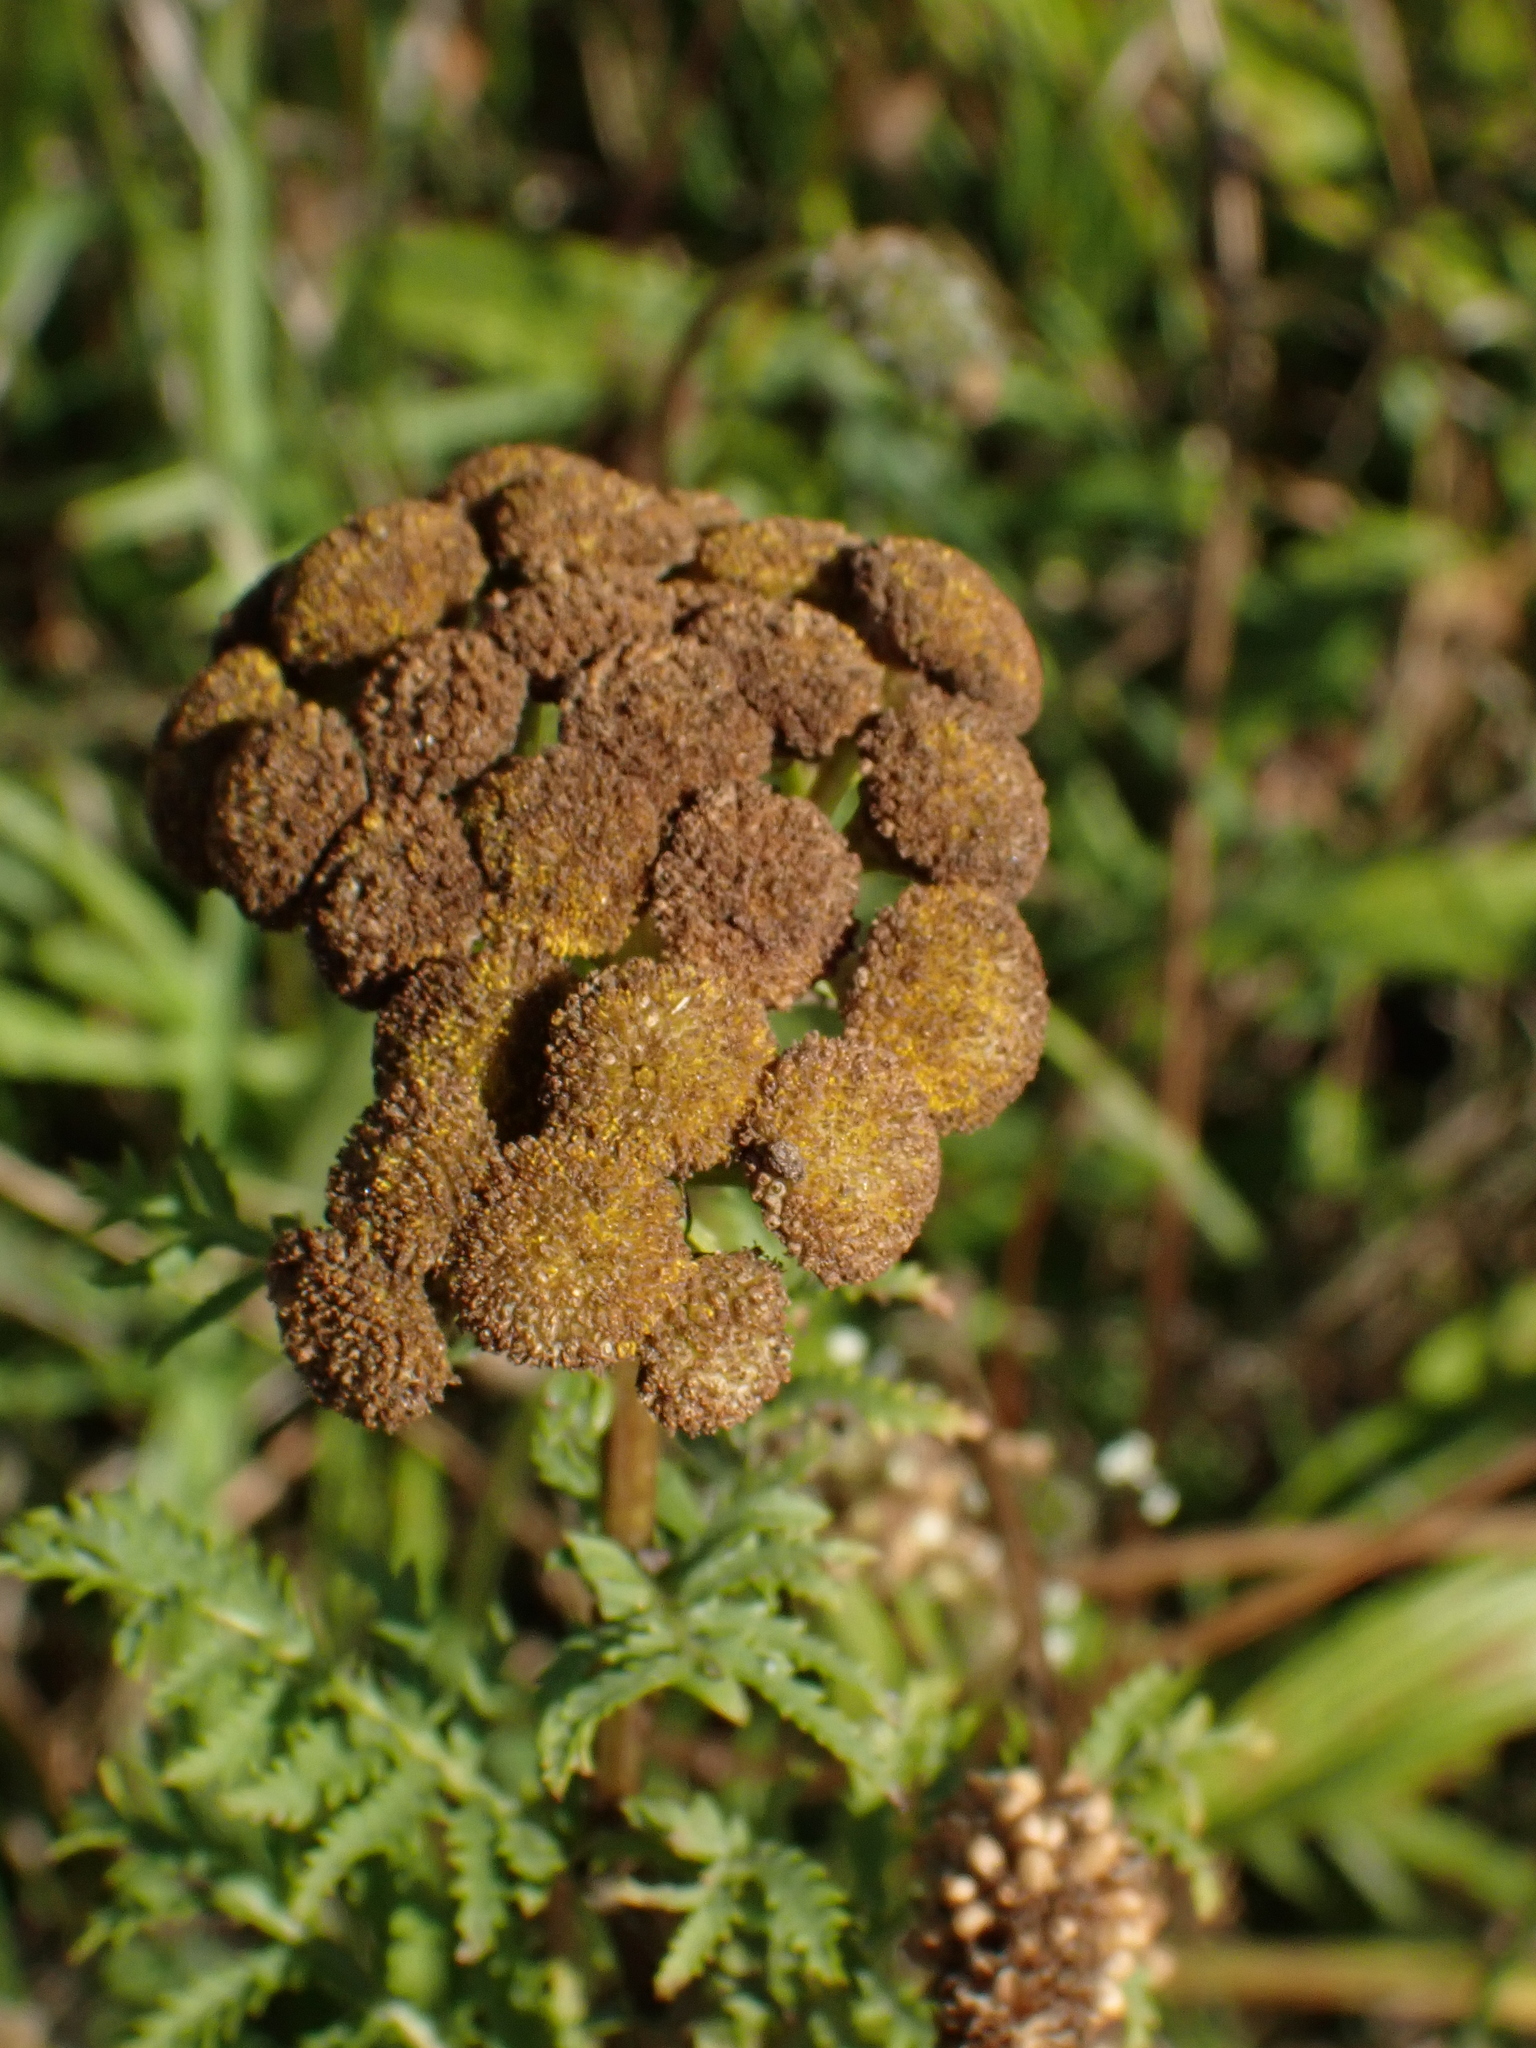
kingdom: Plantae
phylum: Tracheophyta
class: Magnoliopsida
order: Asterales
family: Asteraceae
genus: Tanacetum
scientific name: Tanacetum vulgare
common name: Common tansy
